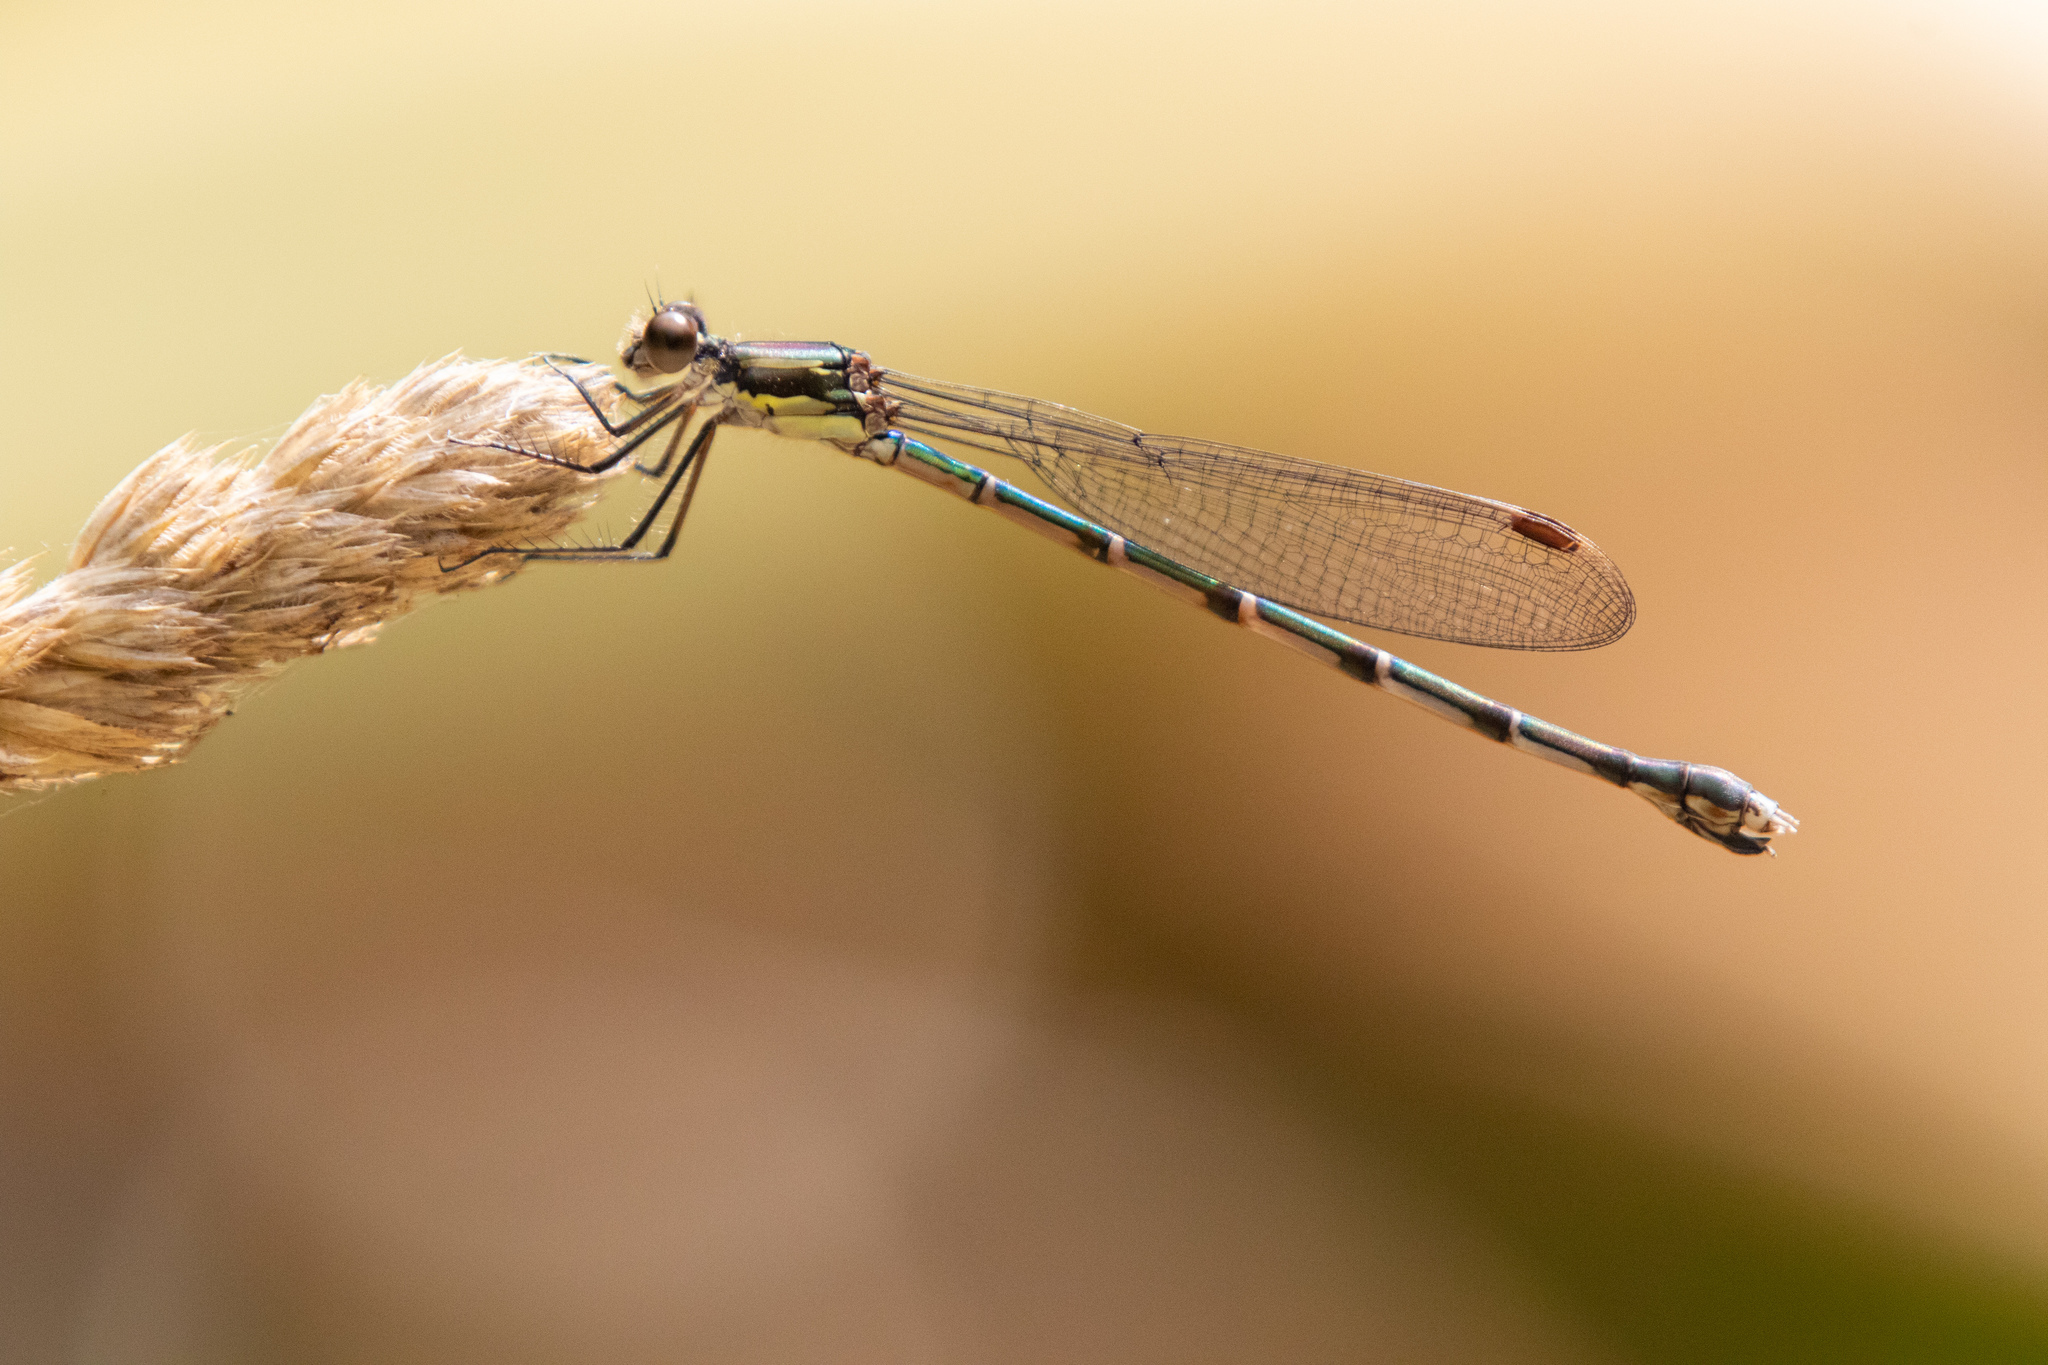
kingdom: Animalia
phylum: Arthropoda
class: Insecta
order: Odonata
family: Lestidae
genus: Austrolestes
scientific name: Austrolestes colensonis
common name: Blue damselfly
